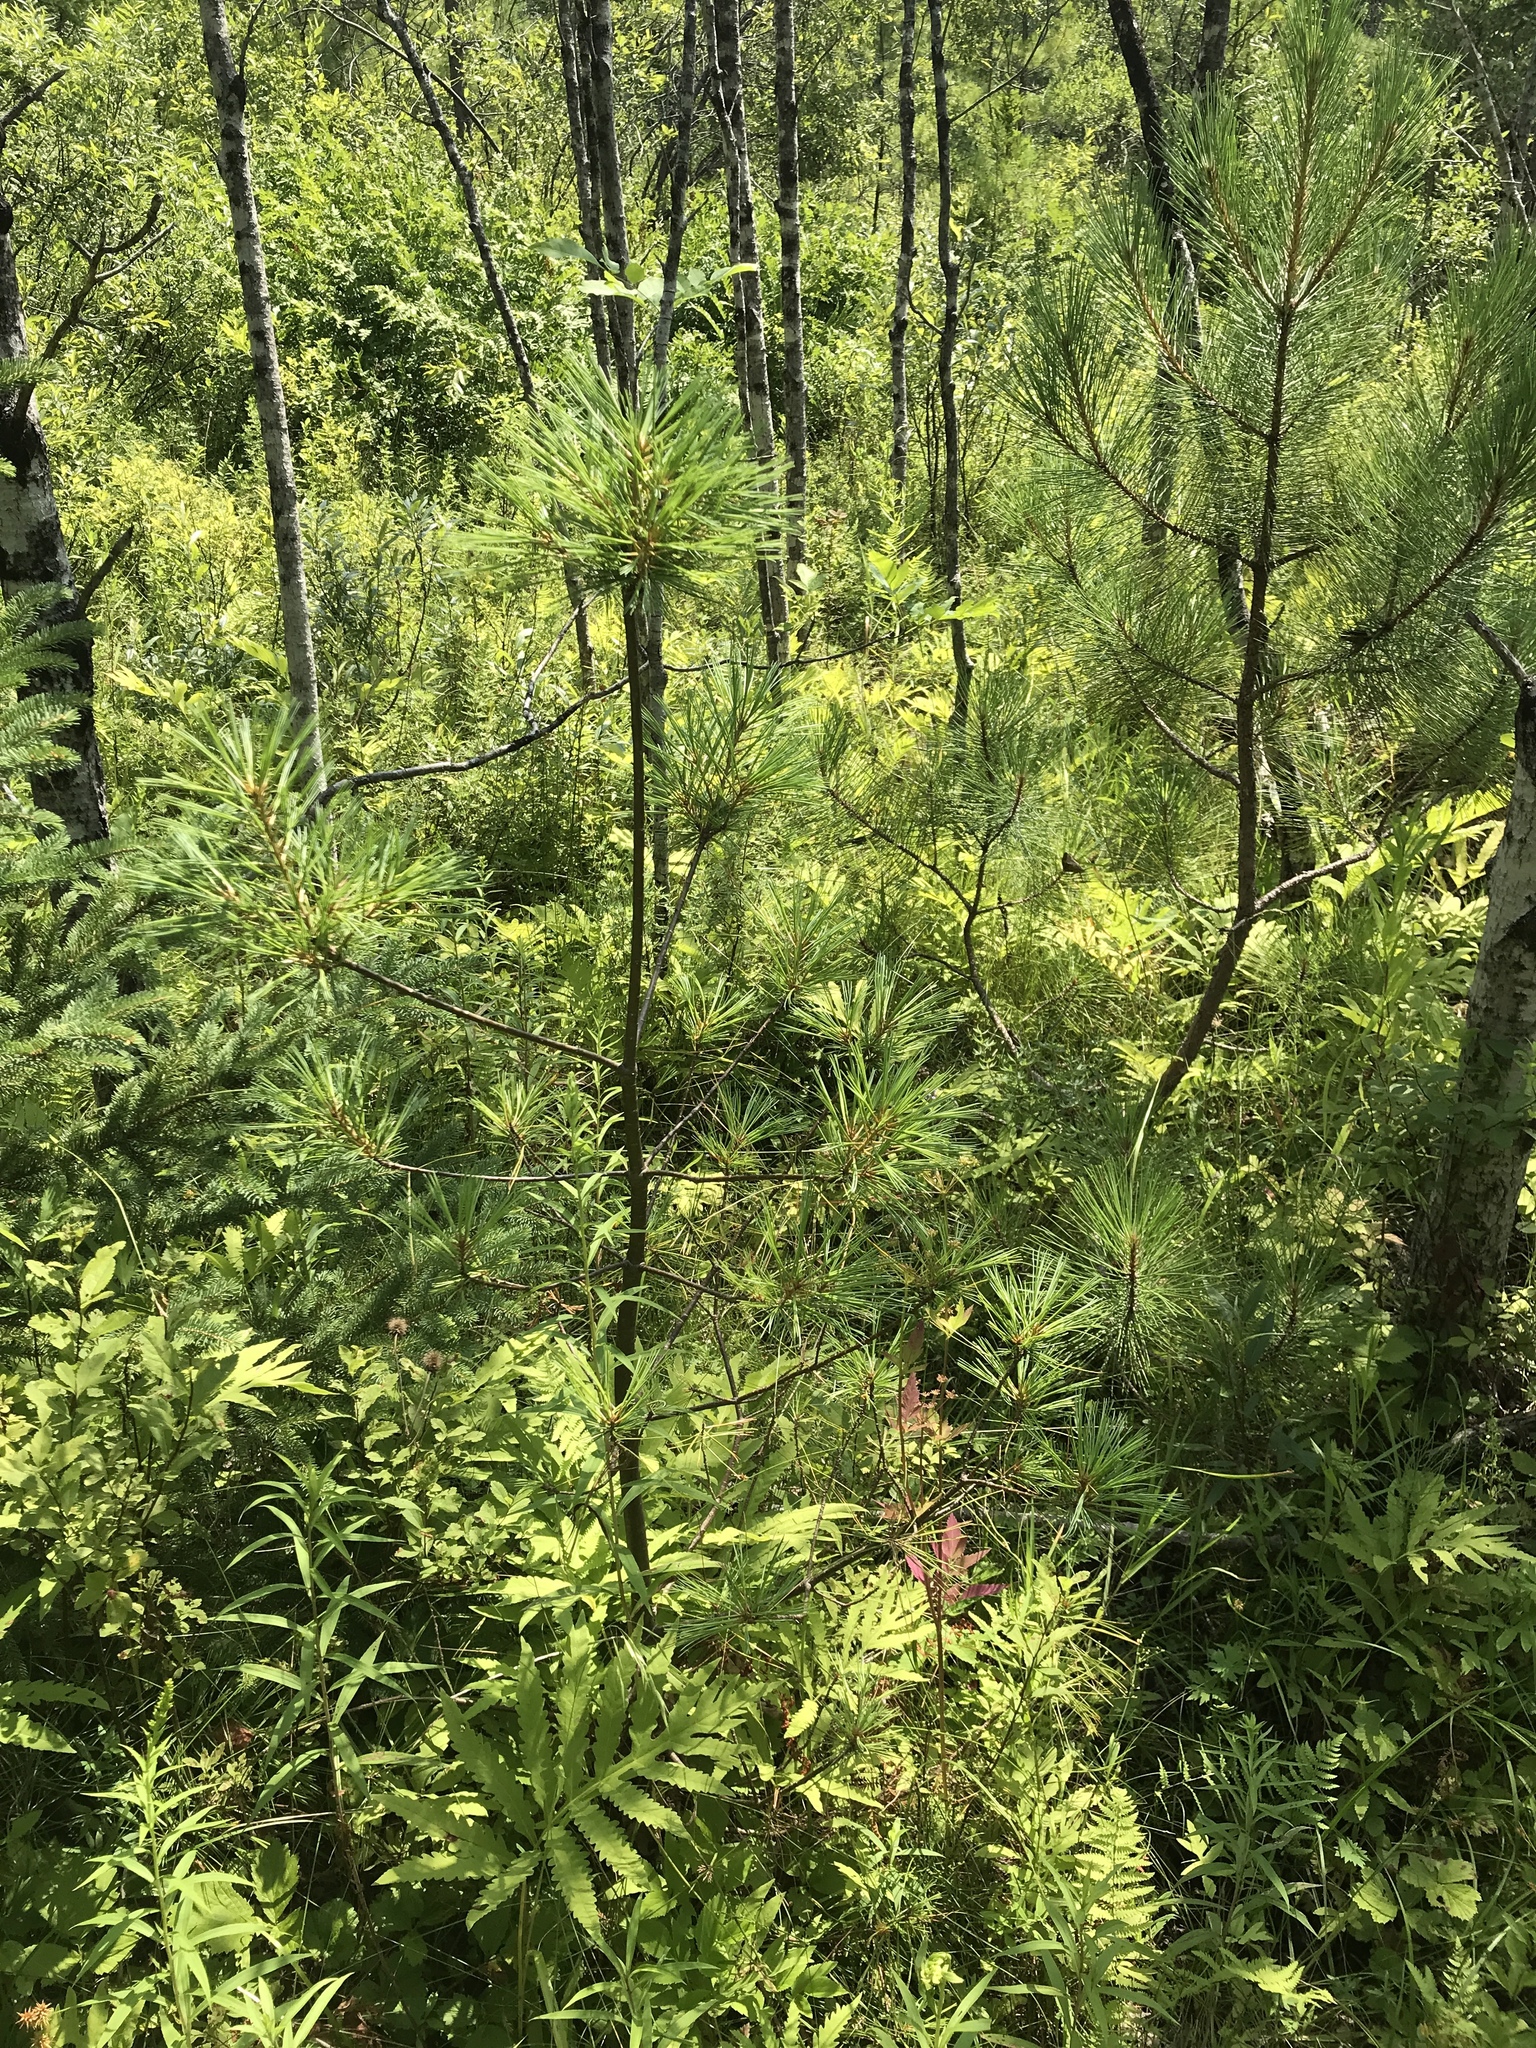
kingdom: Plantae
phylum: Tracheophyta
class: Pinopsida
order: Pinales
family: Pinaceae
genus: Pinus
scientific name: Pinus strobus
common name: Weymouth pine
